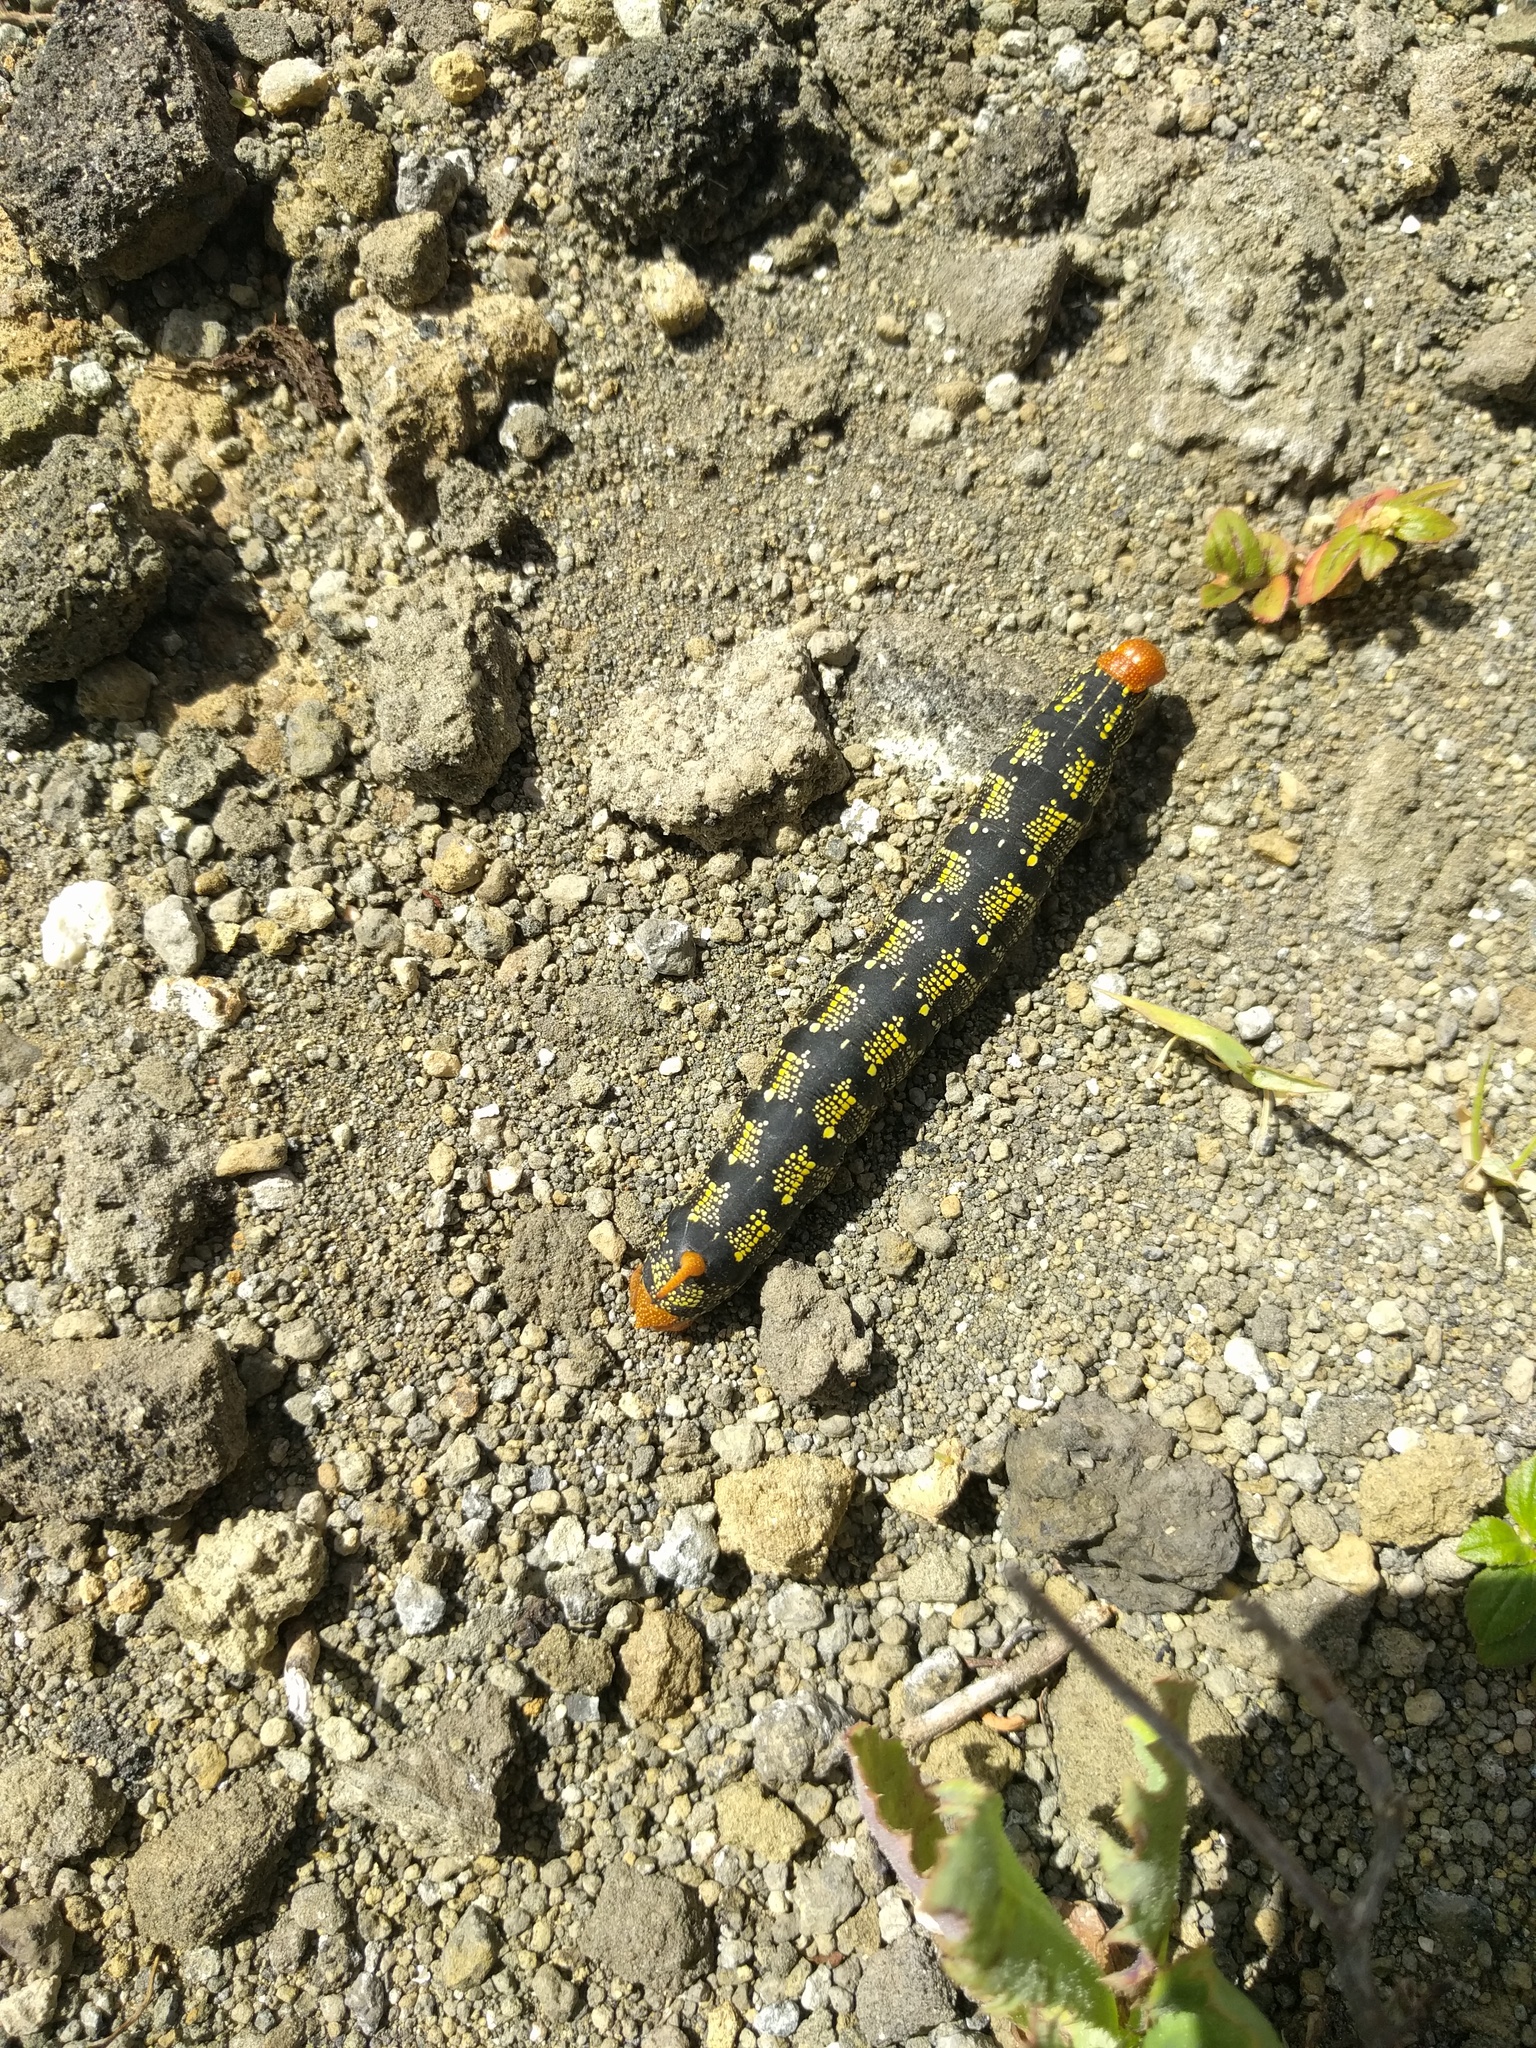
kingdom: Animalia
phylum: Arthropoda
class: Insecta
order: Lepidoptera
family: Sphingidae
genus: Hyles
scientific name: Hyles lineata
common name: White-lined sphinx
